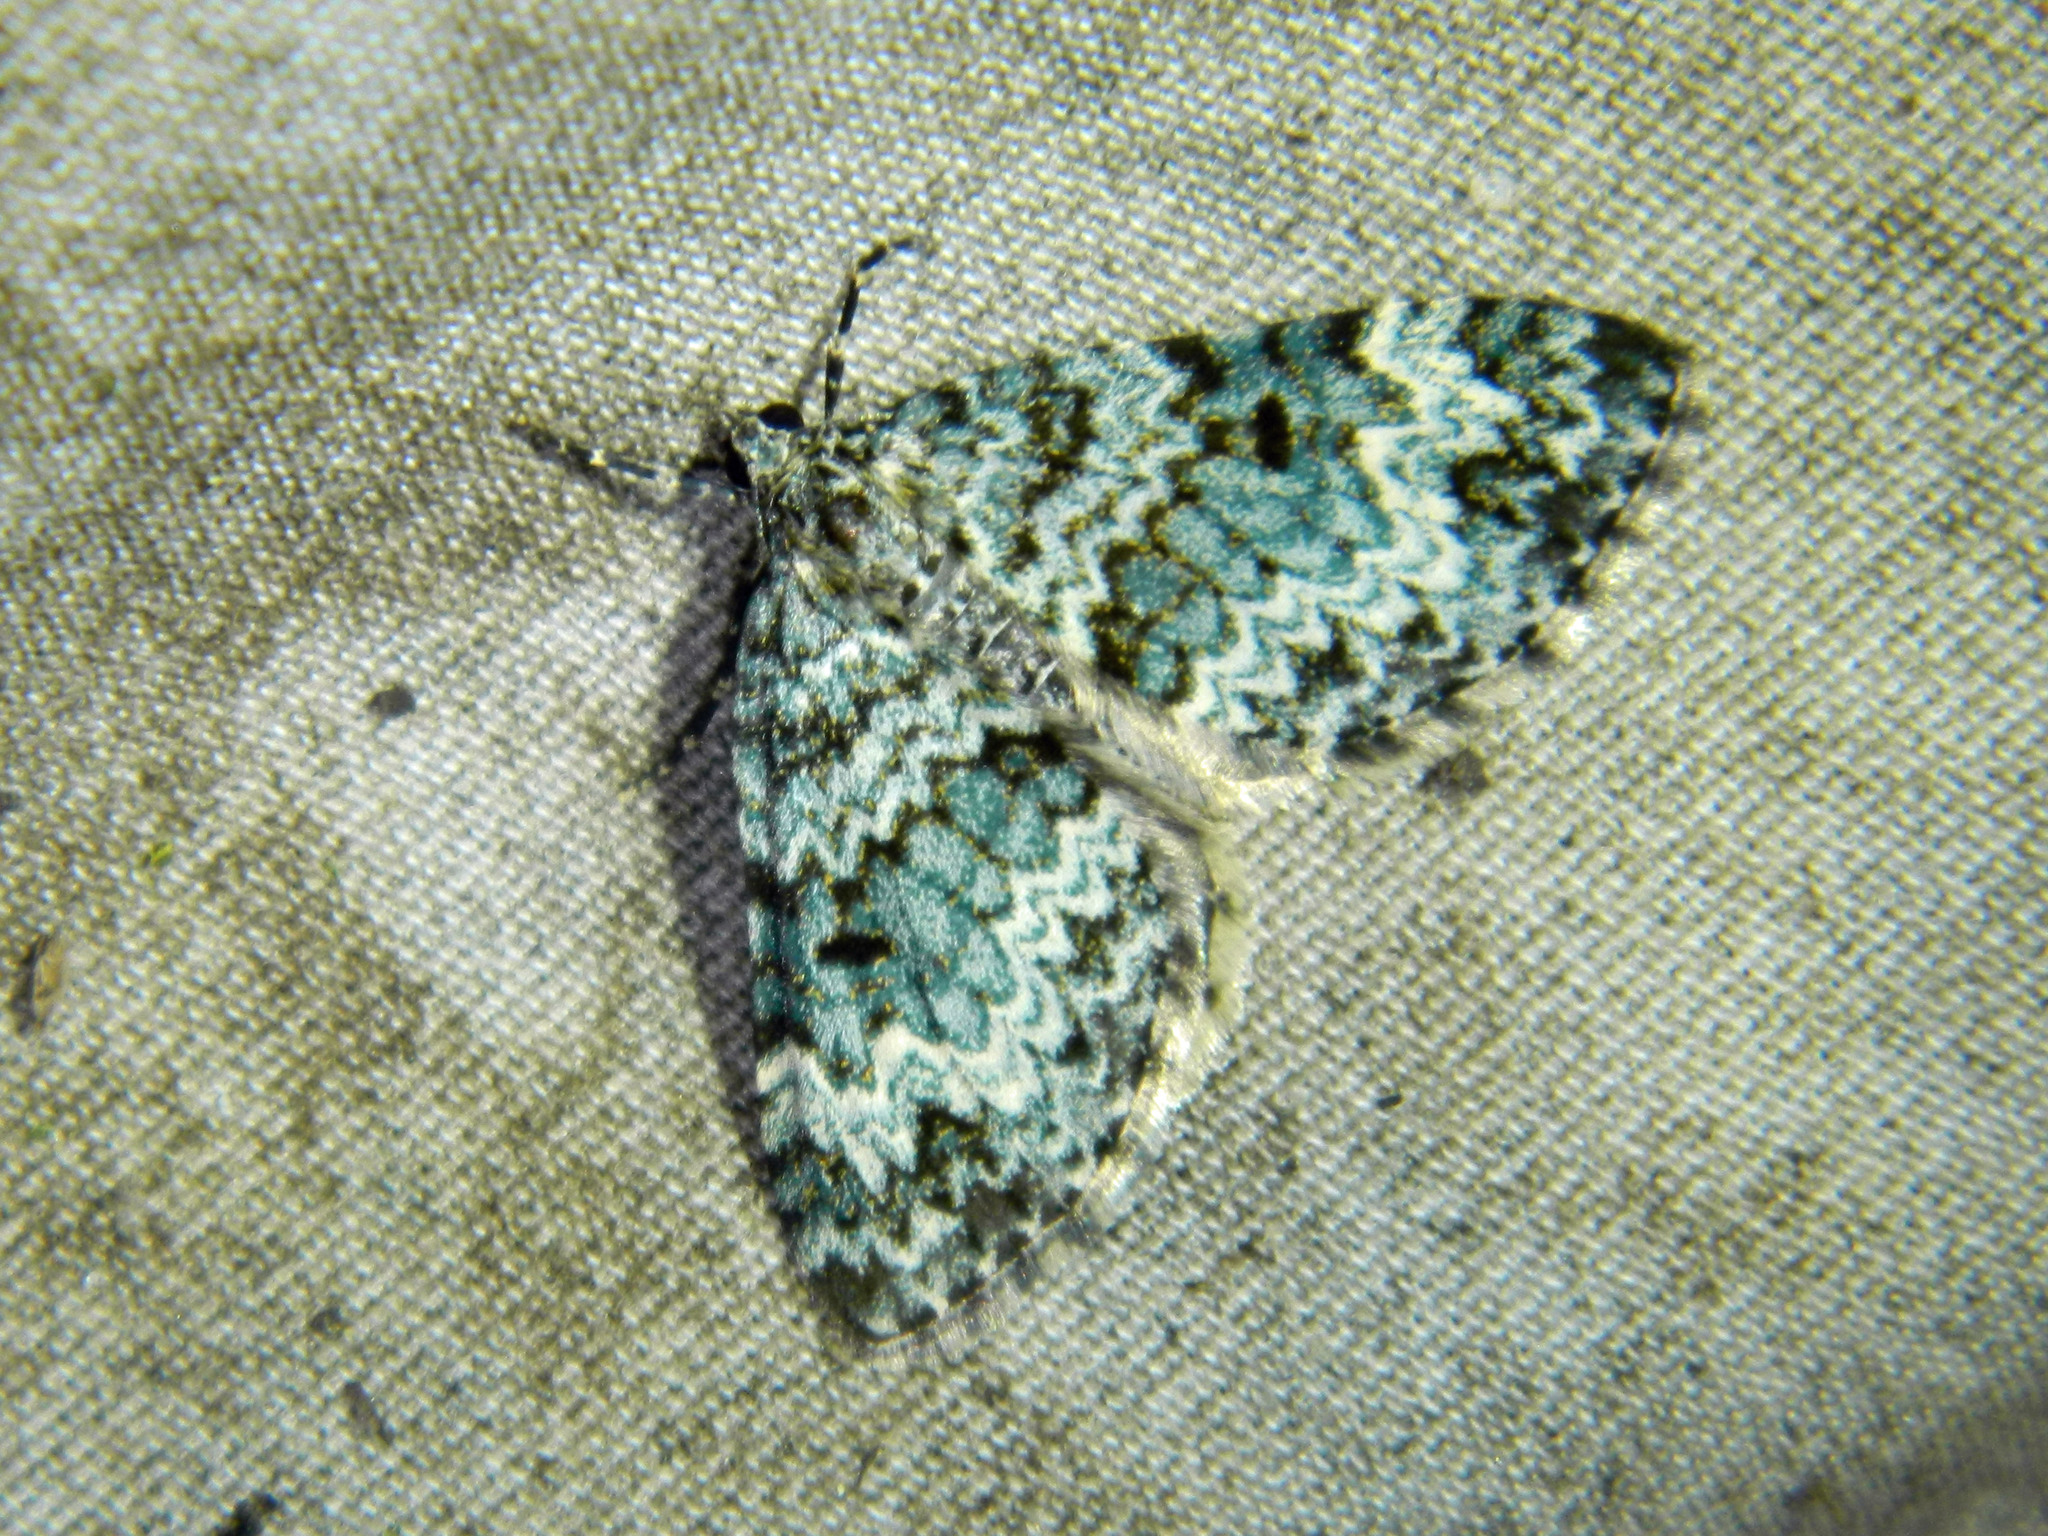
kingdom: Animalia
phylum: Arthropoda
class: Insecta
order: Lepidoptera
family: Geometridae
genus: Spargania
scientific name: Spargania magnoliata
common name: Double-banded carpet
